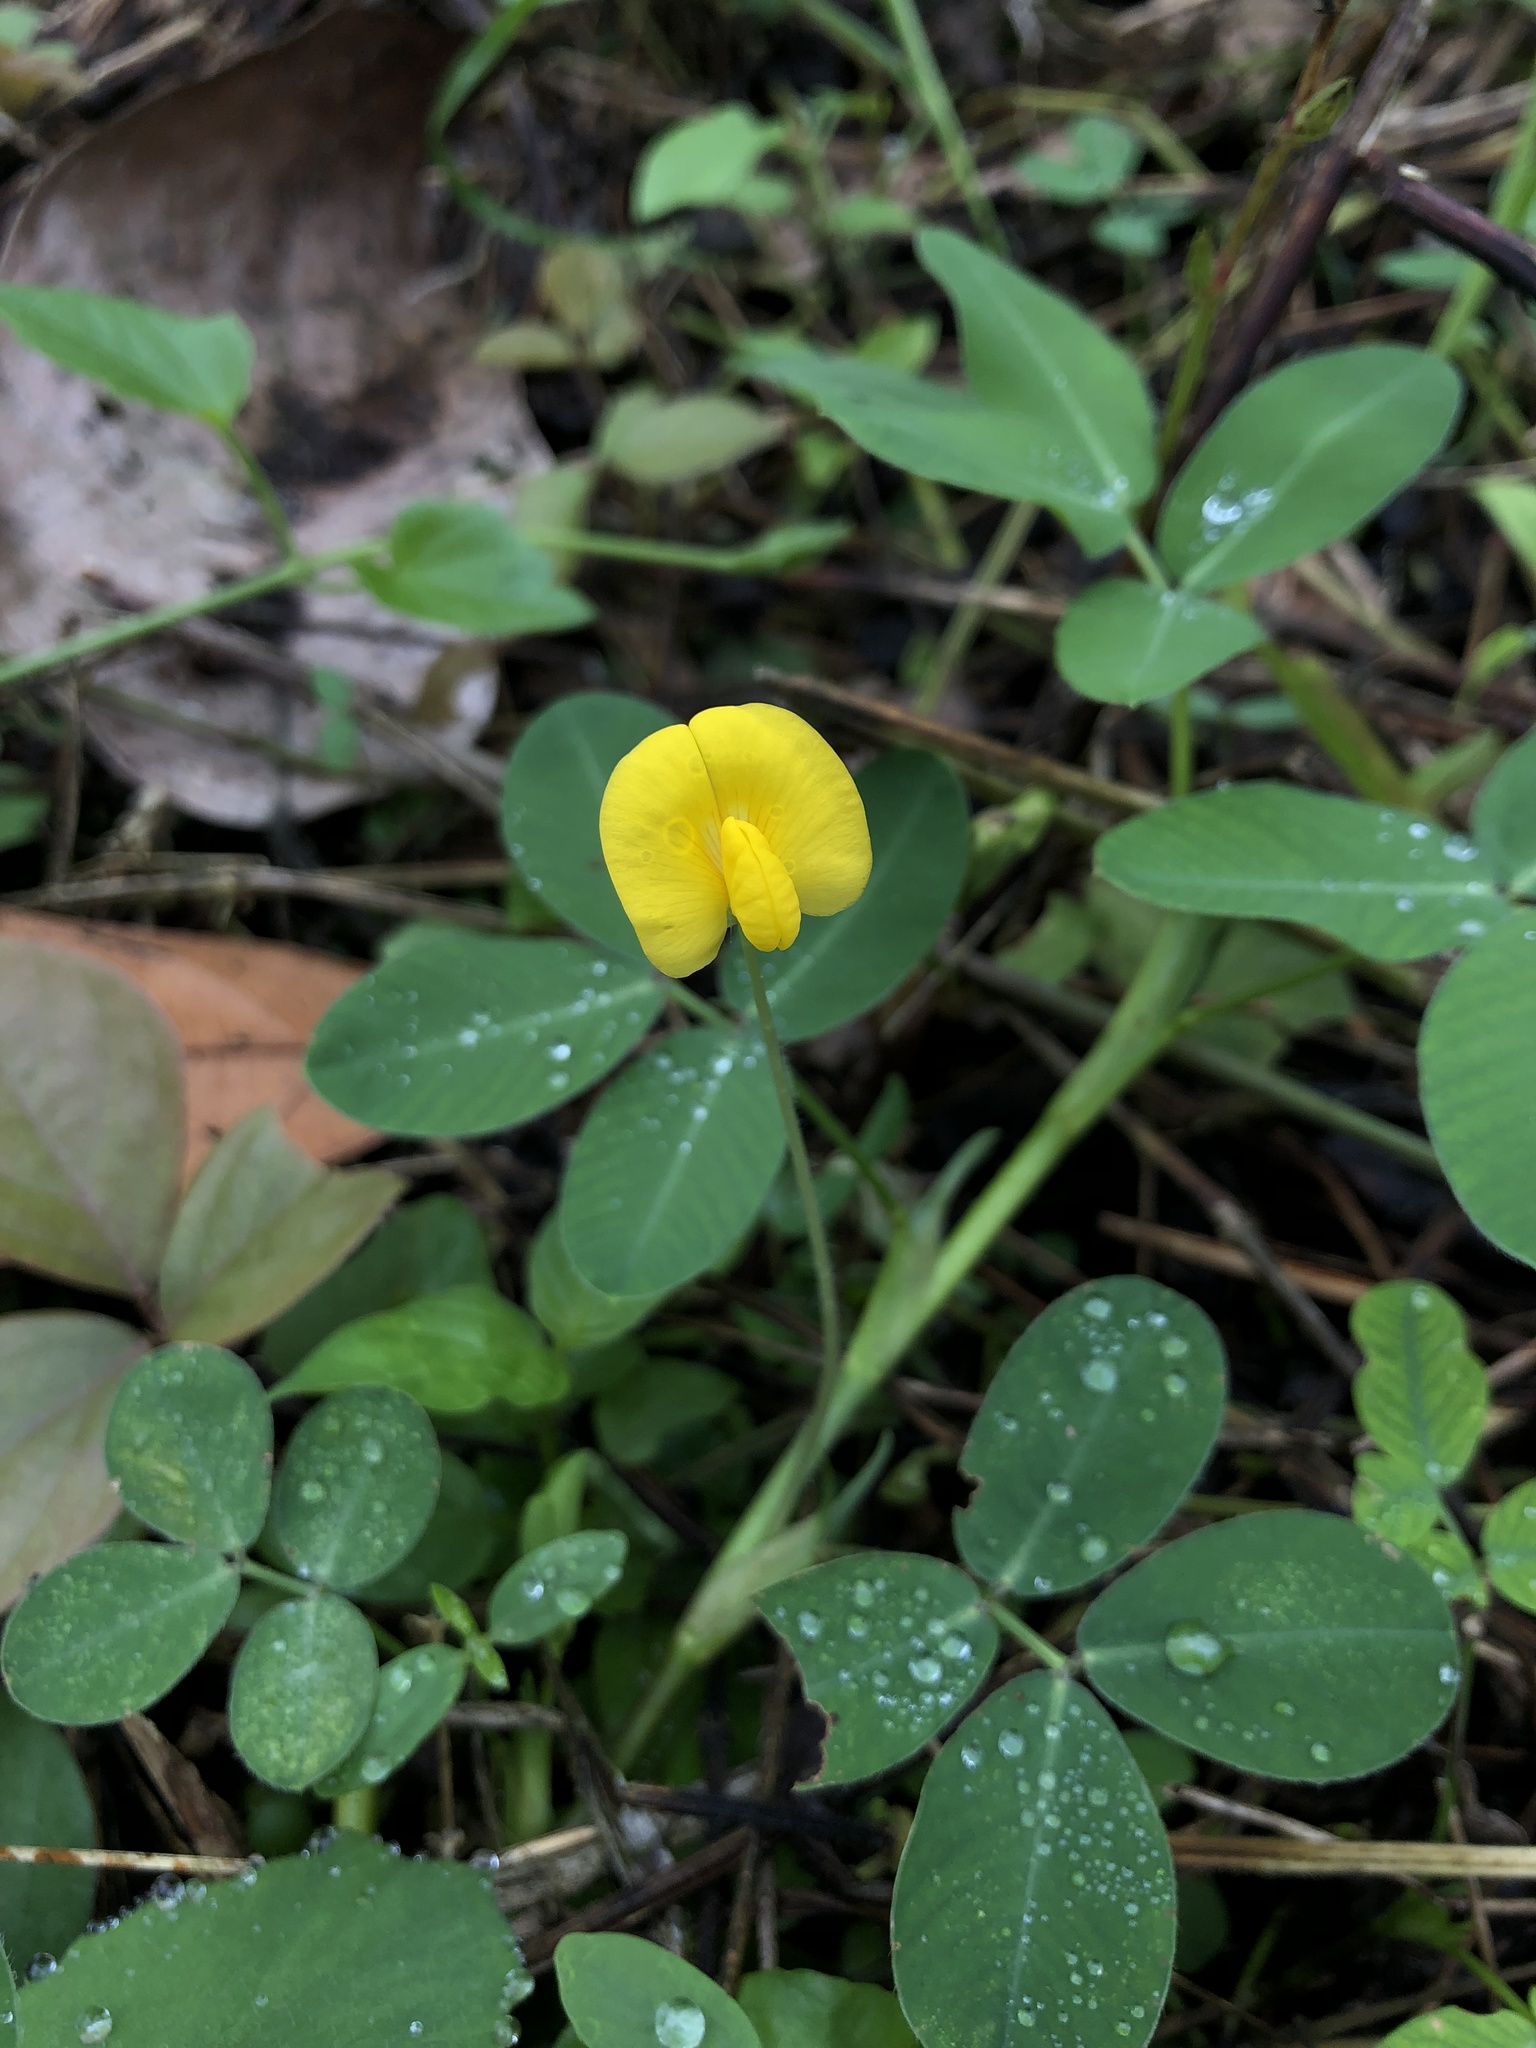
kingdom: Plantae
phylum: Tracheophyta
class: Magnoliopsida
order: Fabales
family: Fabaceae
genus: Arachis
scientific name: Arachis pintoi
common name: Pinto peanut
